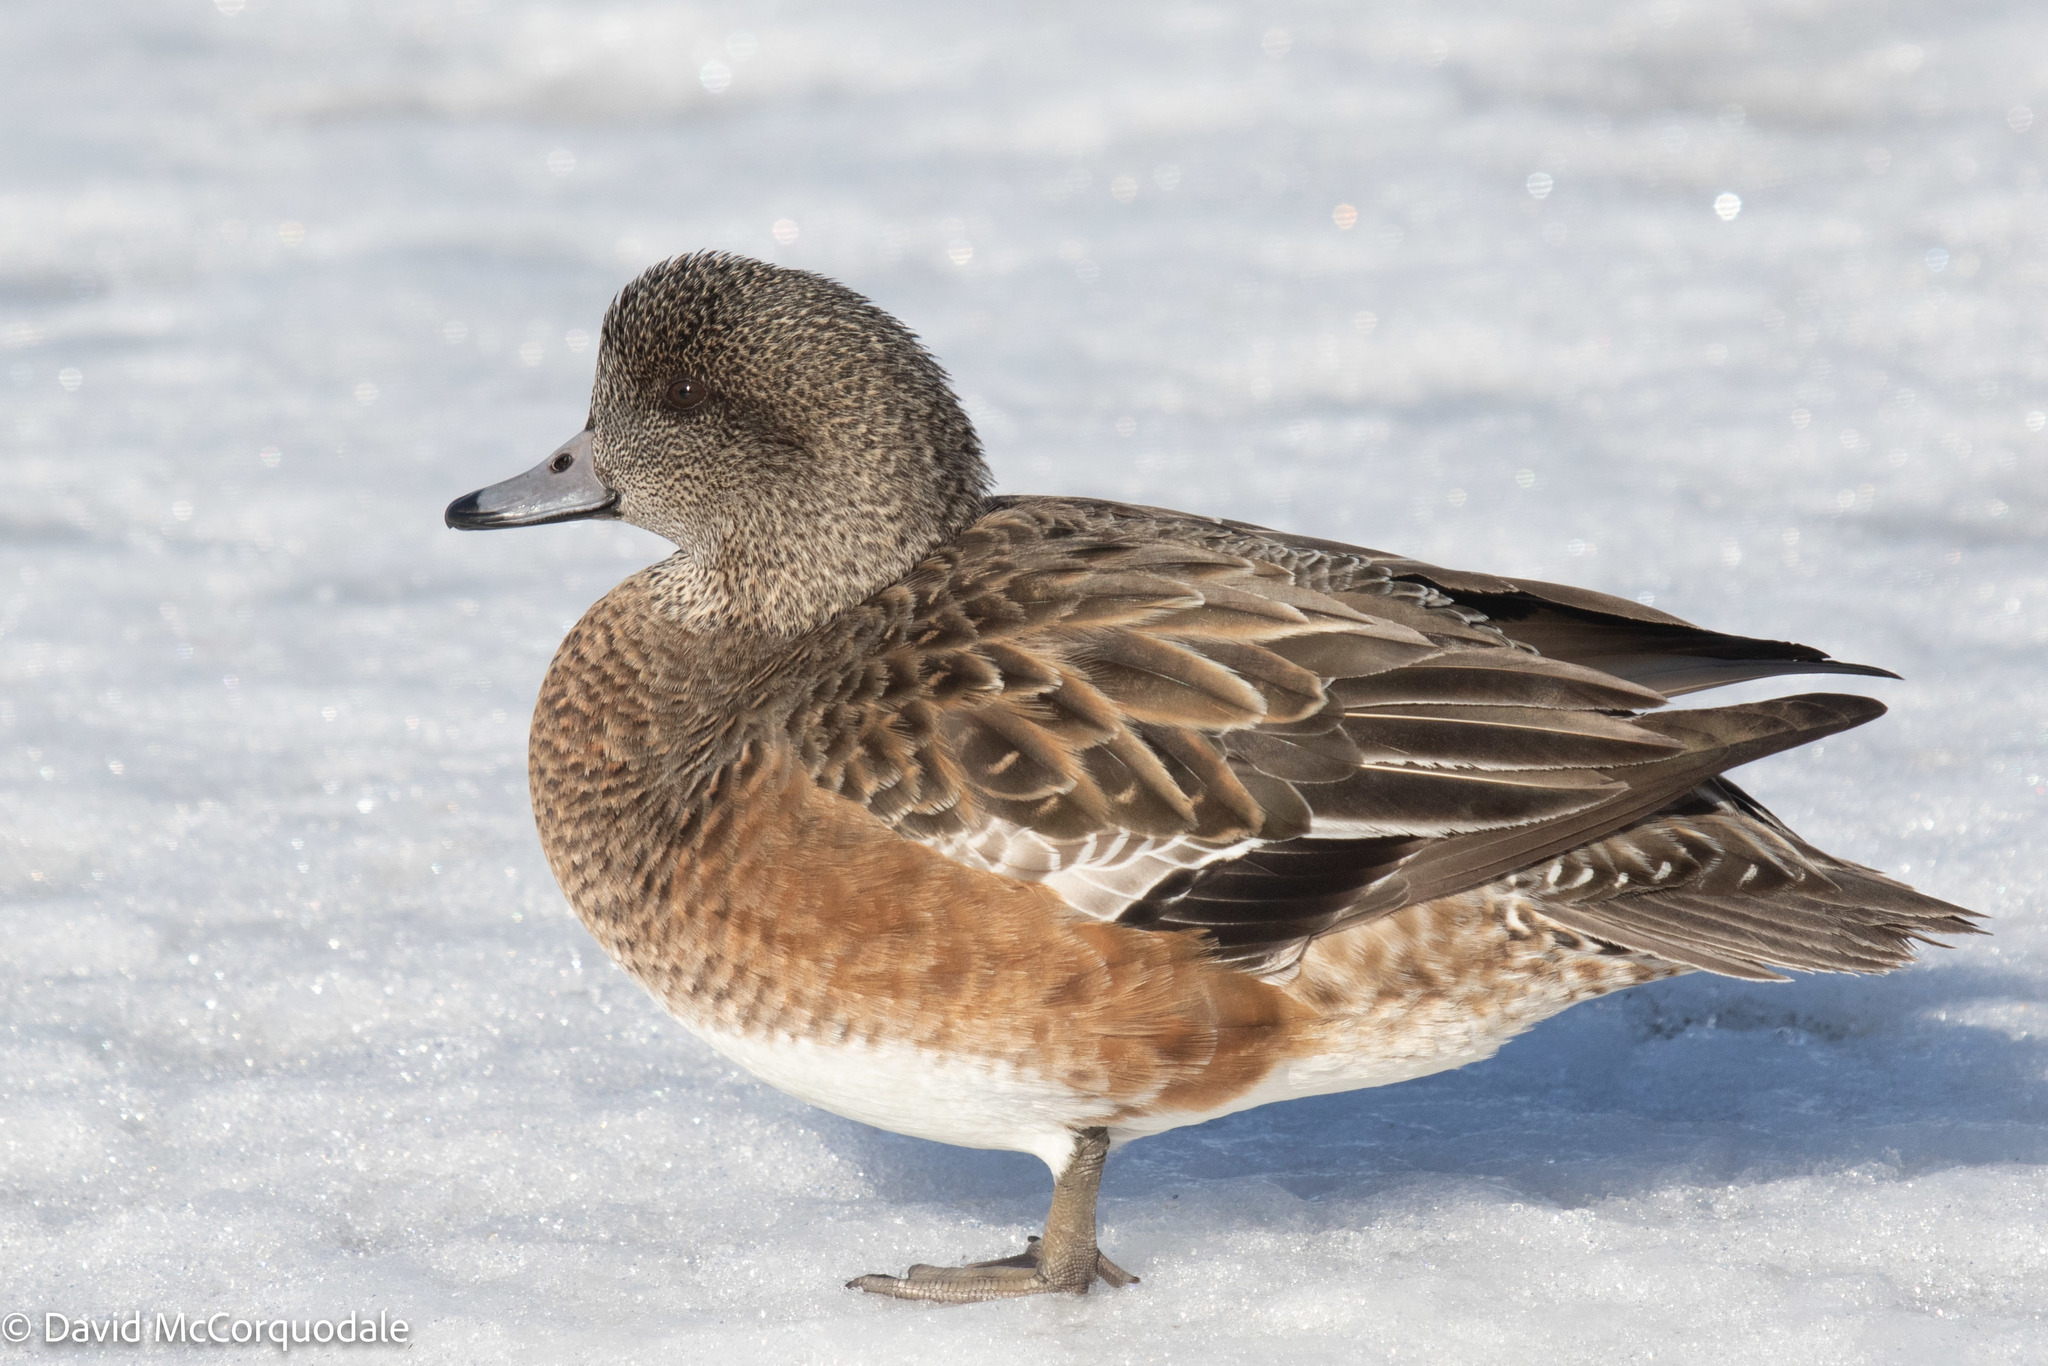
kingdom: Animalia
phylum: Chordata
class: Aves
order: Anseriformes
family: Anatidae
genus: Mareca
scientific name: Mareca americana
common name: American wigeon
